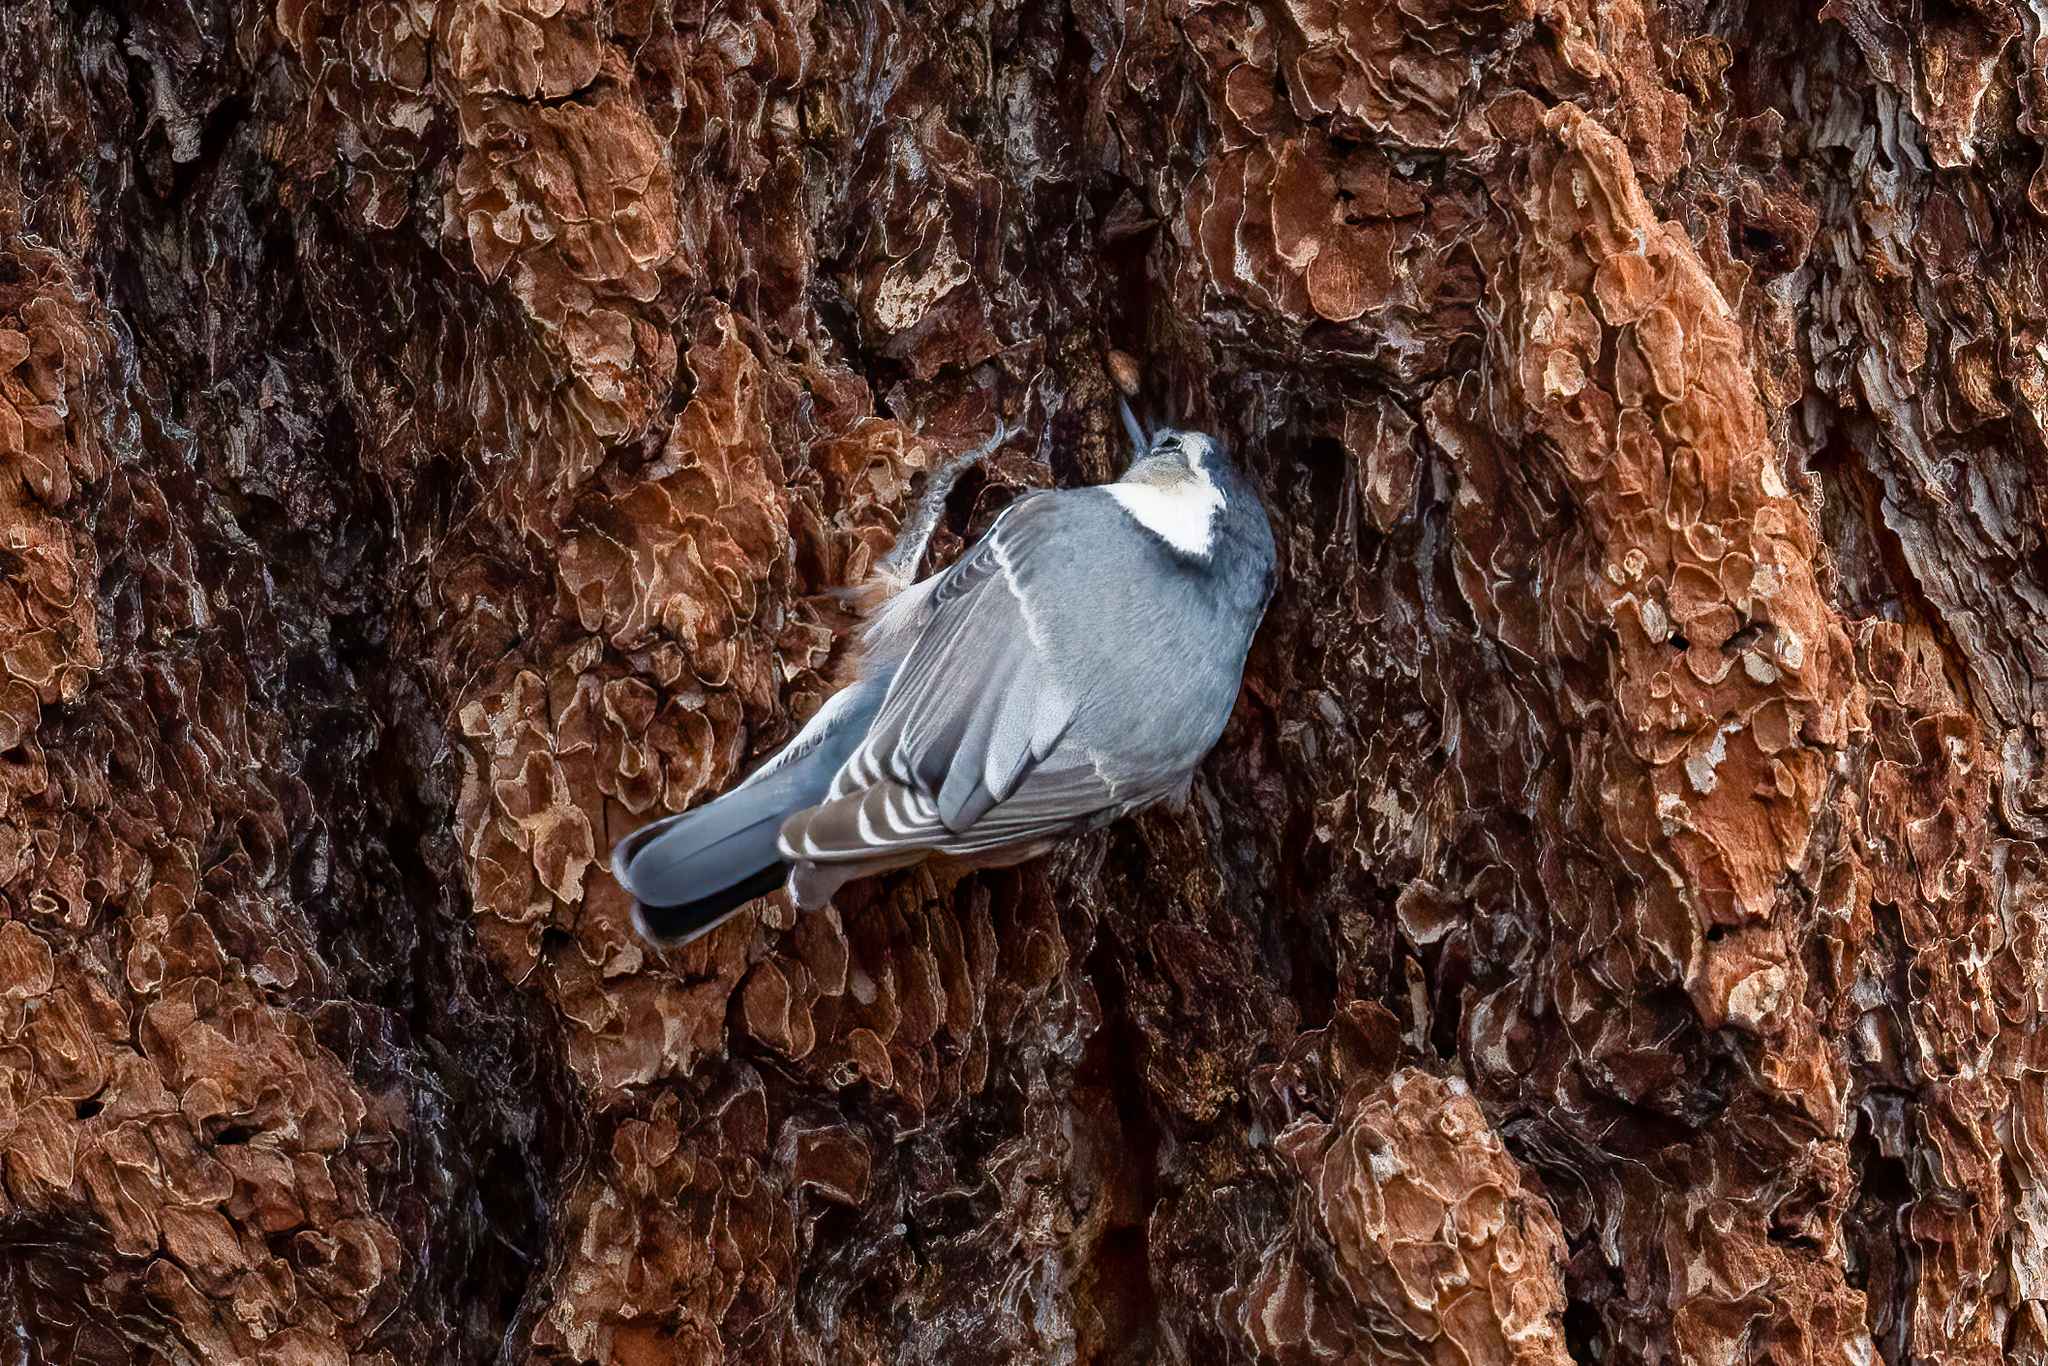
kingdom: Animalia
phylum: Chordata
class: Aves
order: Passeriformes
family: Sittidae
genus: Sitta
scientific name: Sitta carolinensis
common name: White-breasted nuthatch
